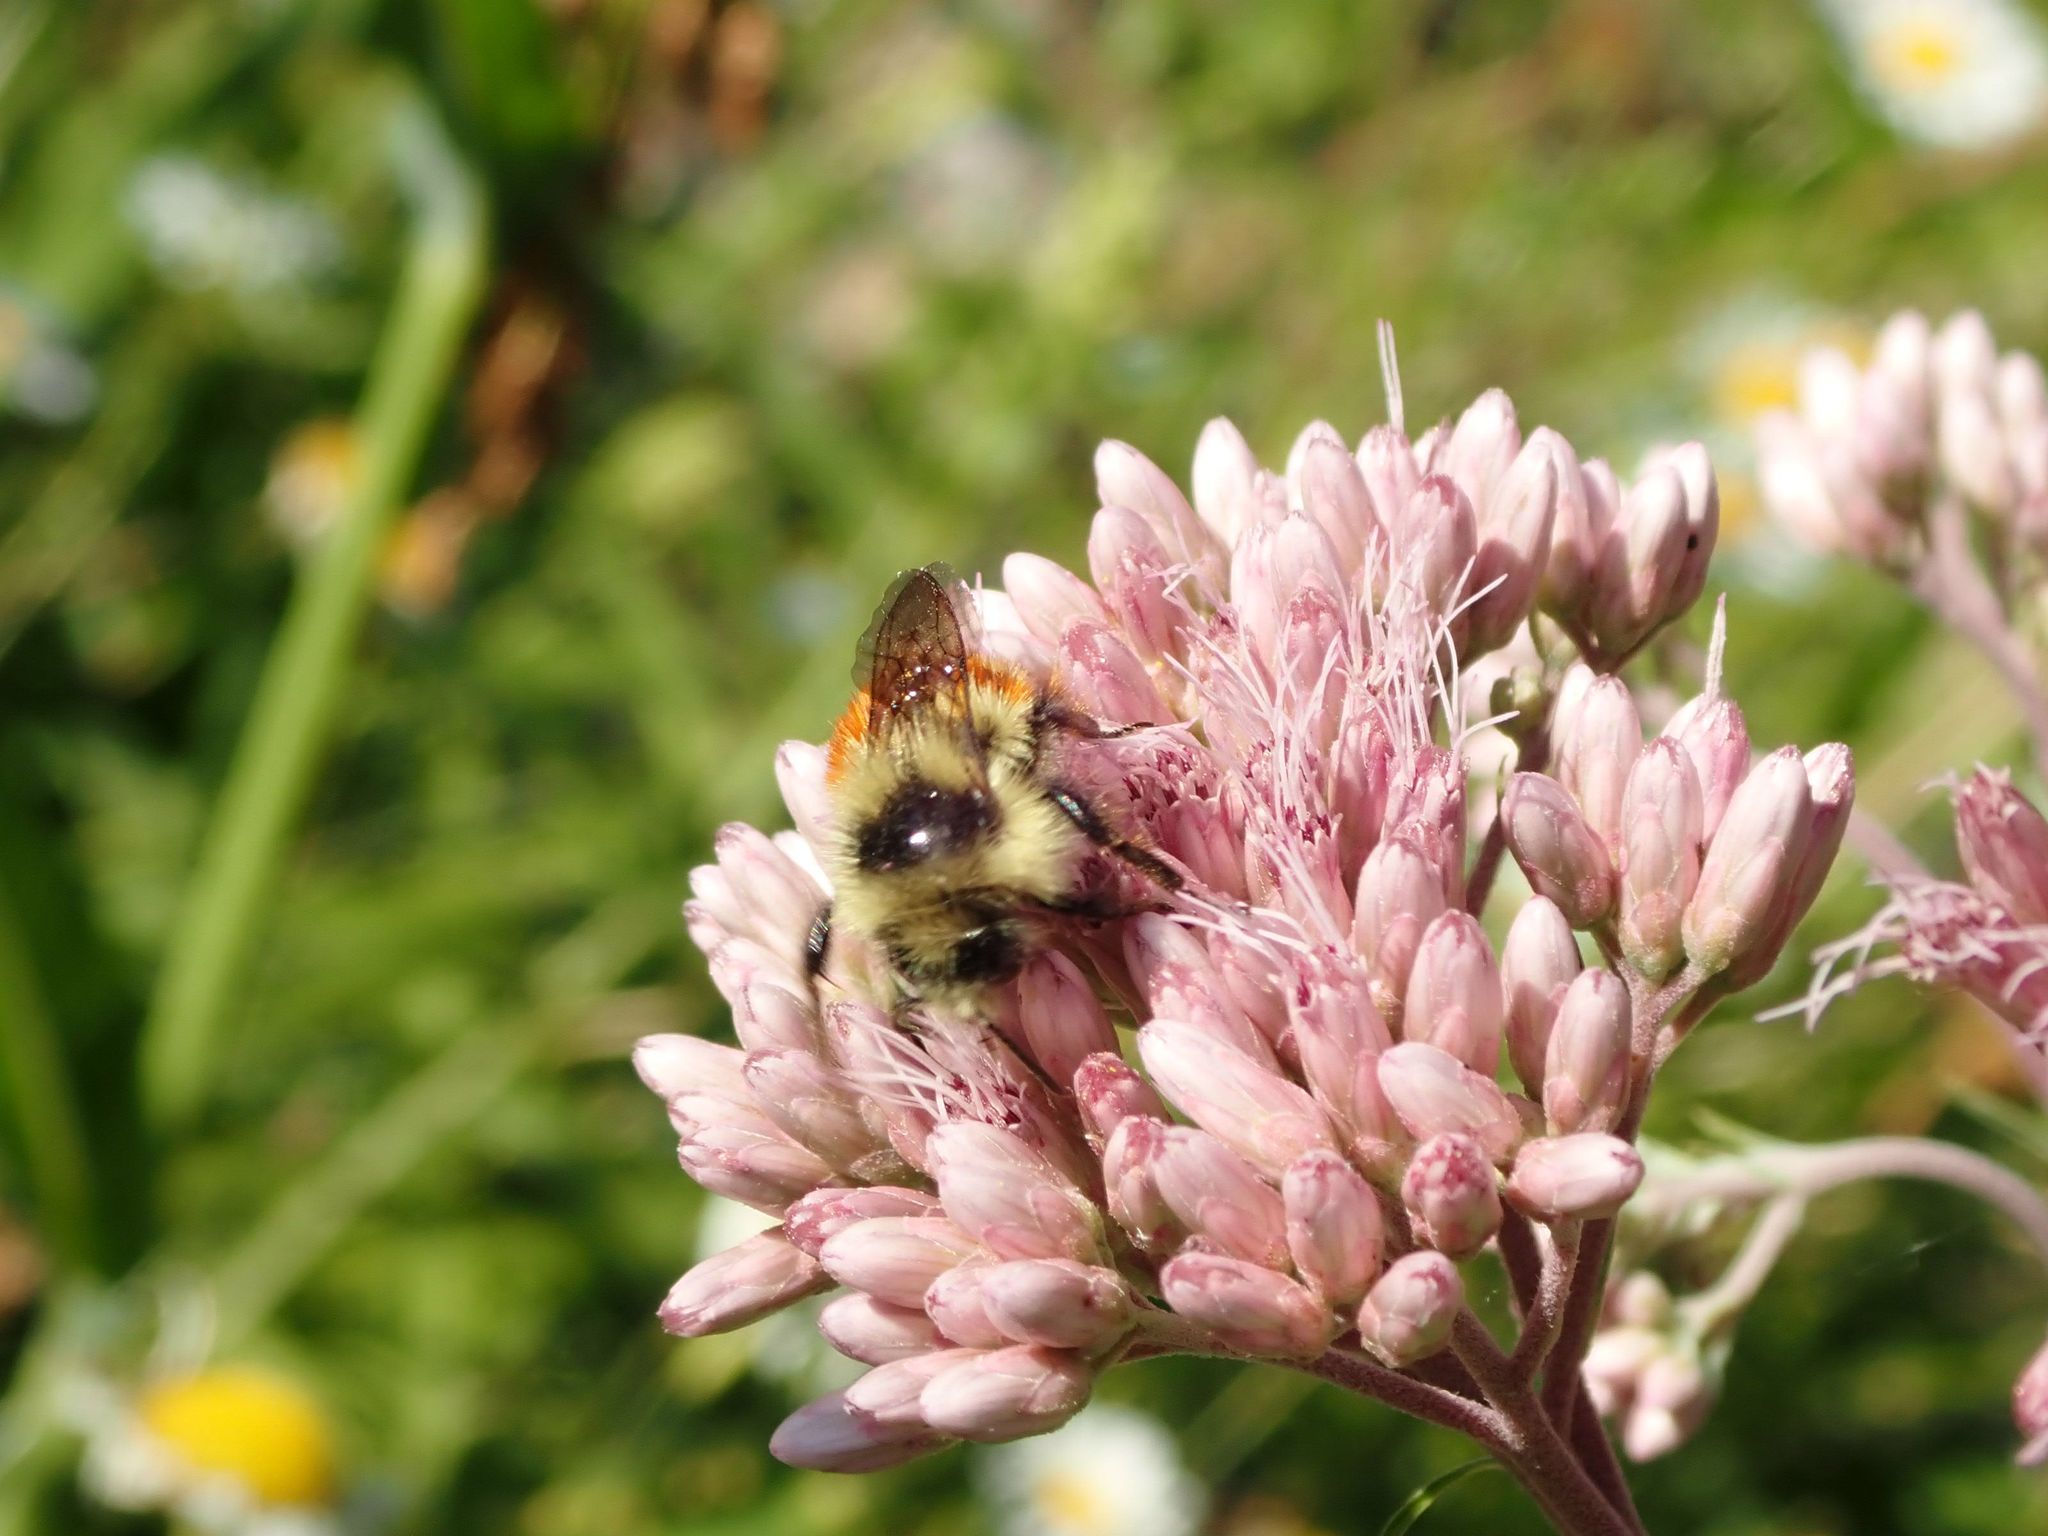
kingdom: Animalia
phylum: Arthropoda
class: Insecta
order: Hymenoptera
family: Apidae
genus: Bombus
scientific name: Bombus ternarius
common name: Tri-colored bumble bee
